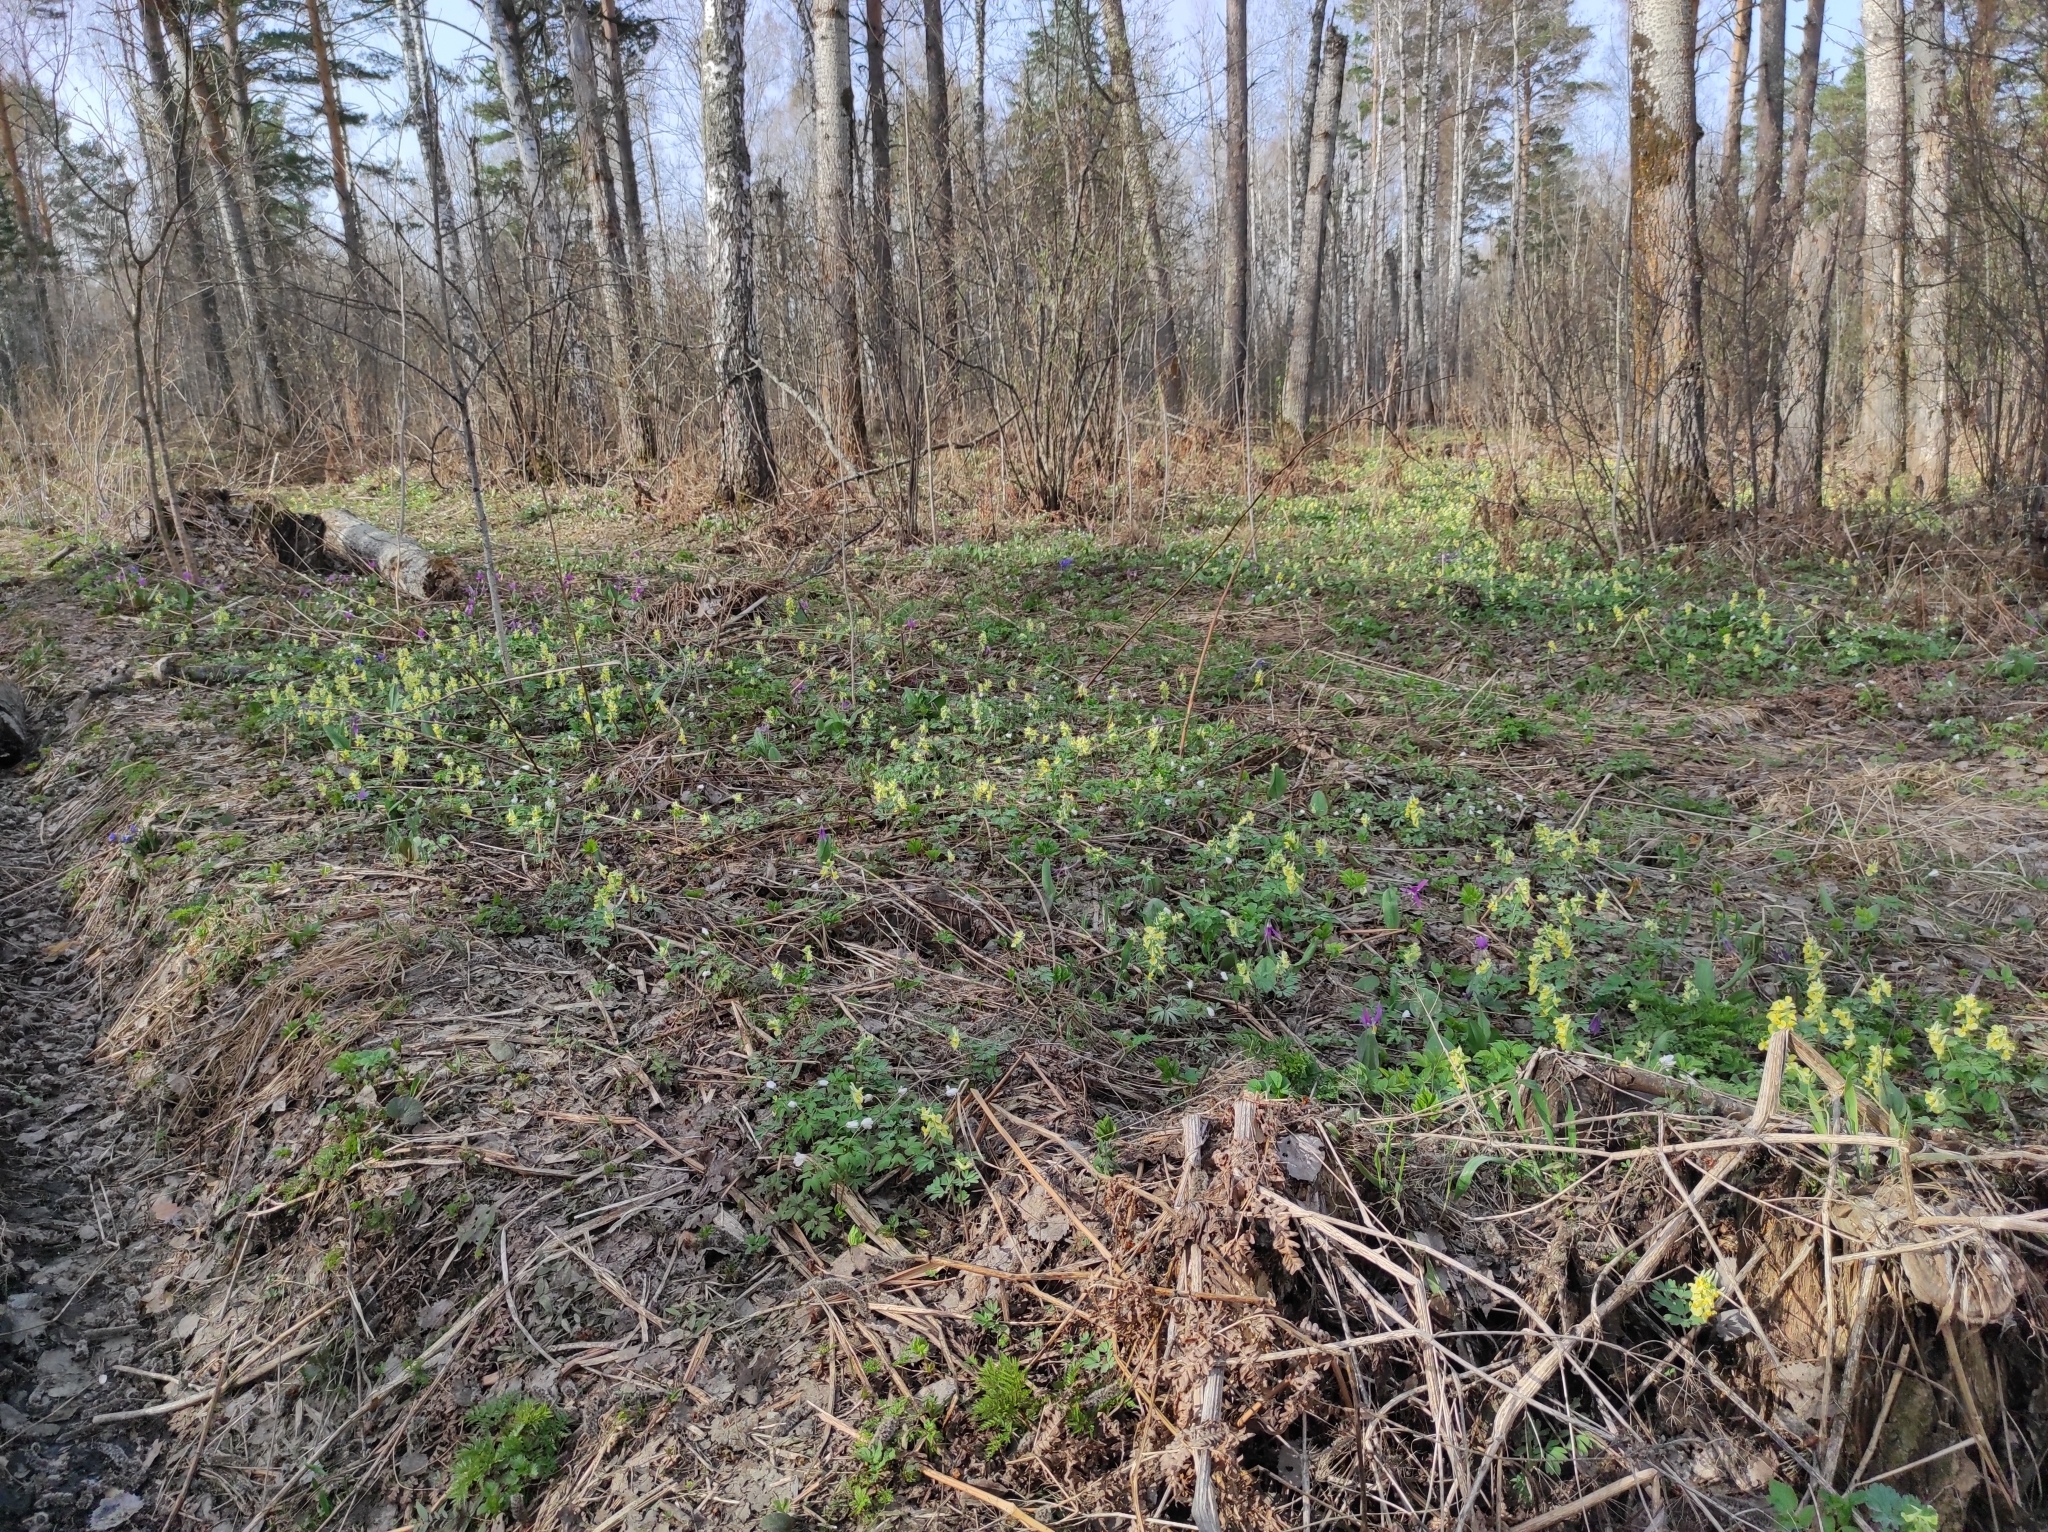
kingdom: Plantae
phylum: Tracheophyta
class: Magnoliopsida
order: Ranunculales
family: Papaveraceae
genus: Corydalis
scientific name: Corydalis bracteata
